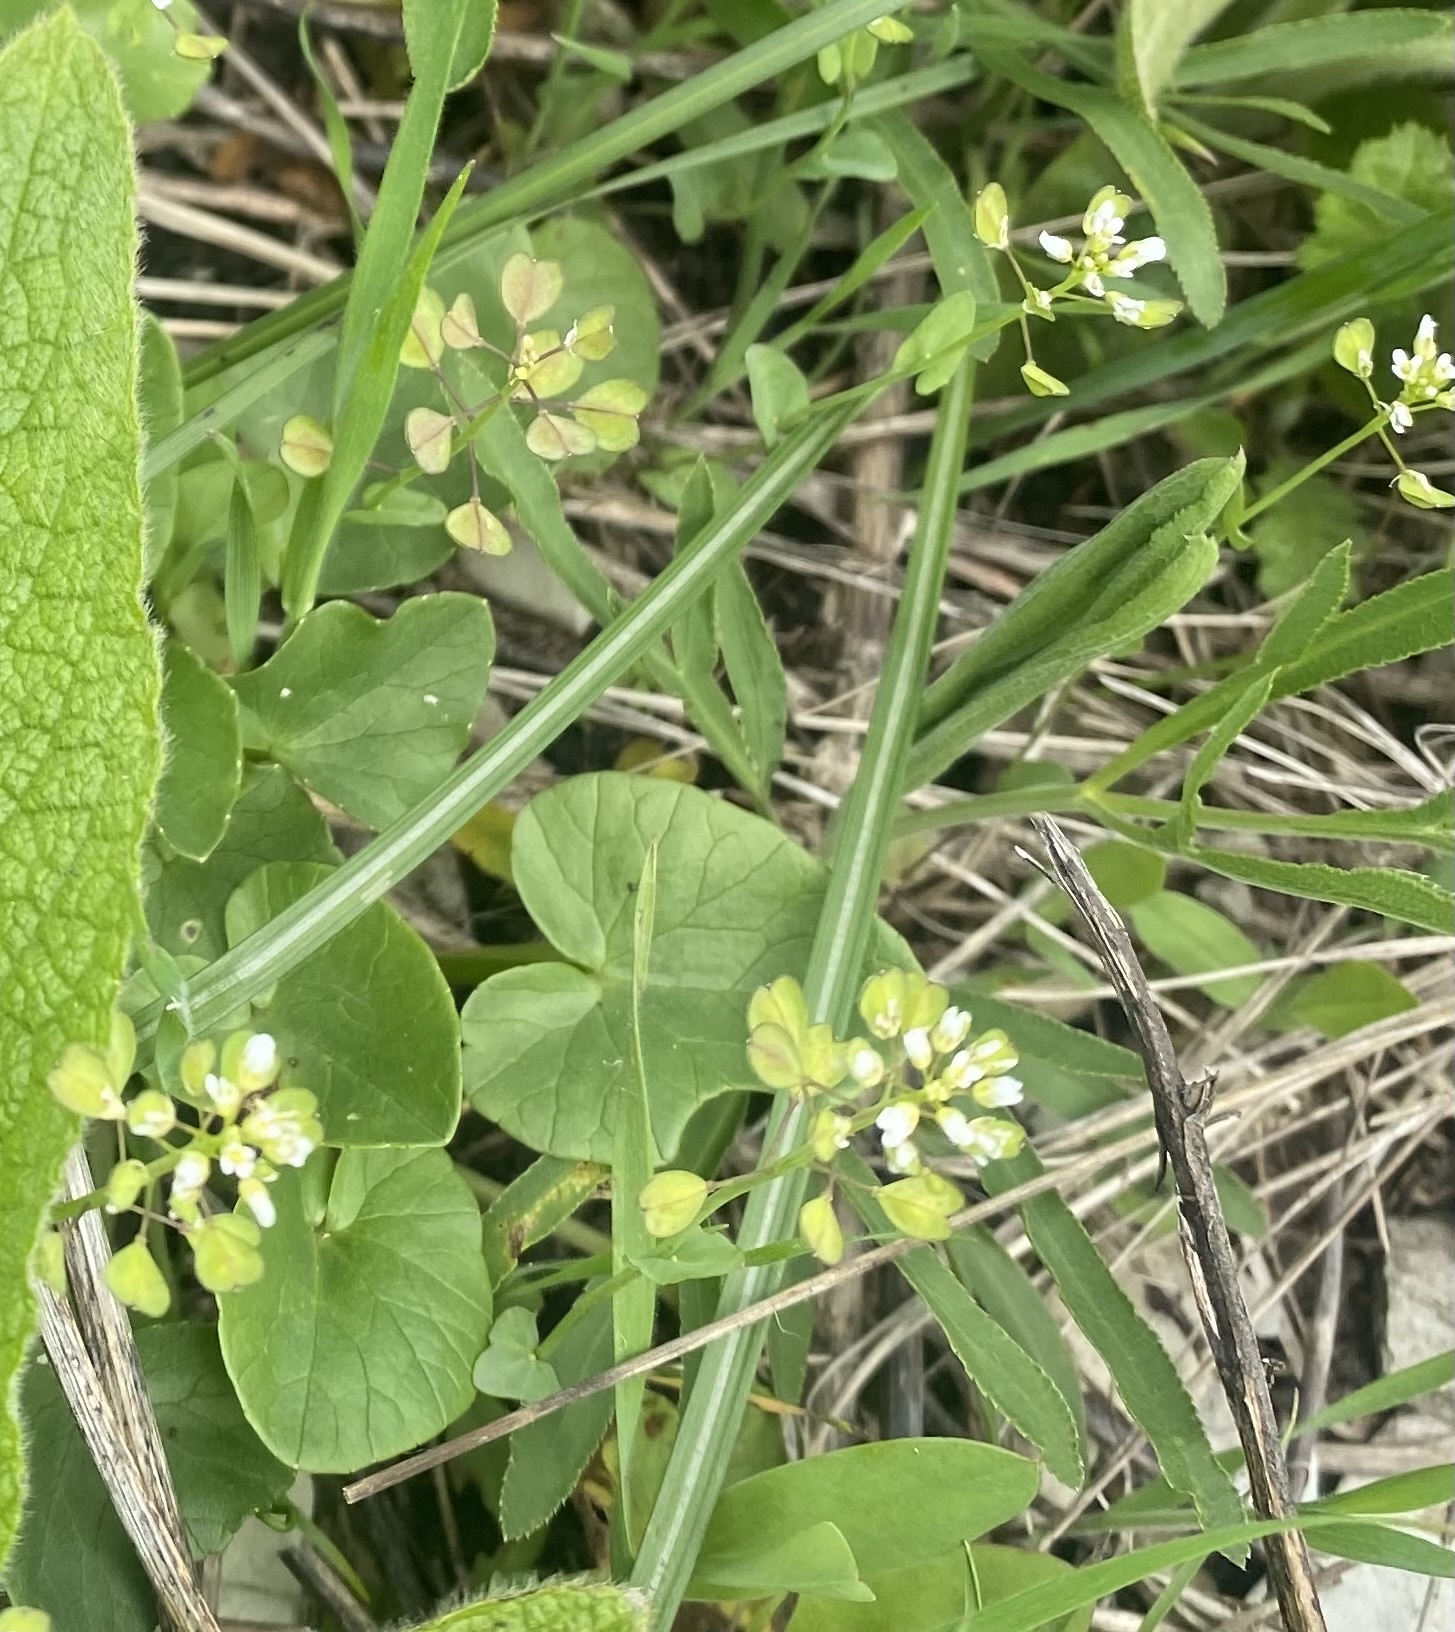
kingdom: Plantae
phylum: Tracheophyta
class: Magnoliopsida
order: Brassicales
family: Brassicaceae
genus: Noccaea
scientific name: Noccaea perfoliata
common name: Perfoliate pennycress
